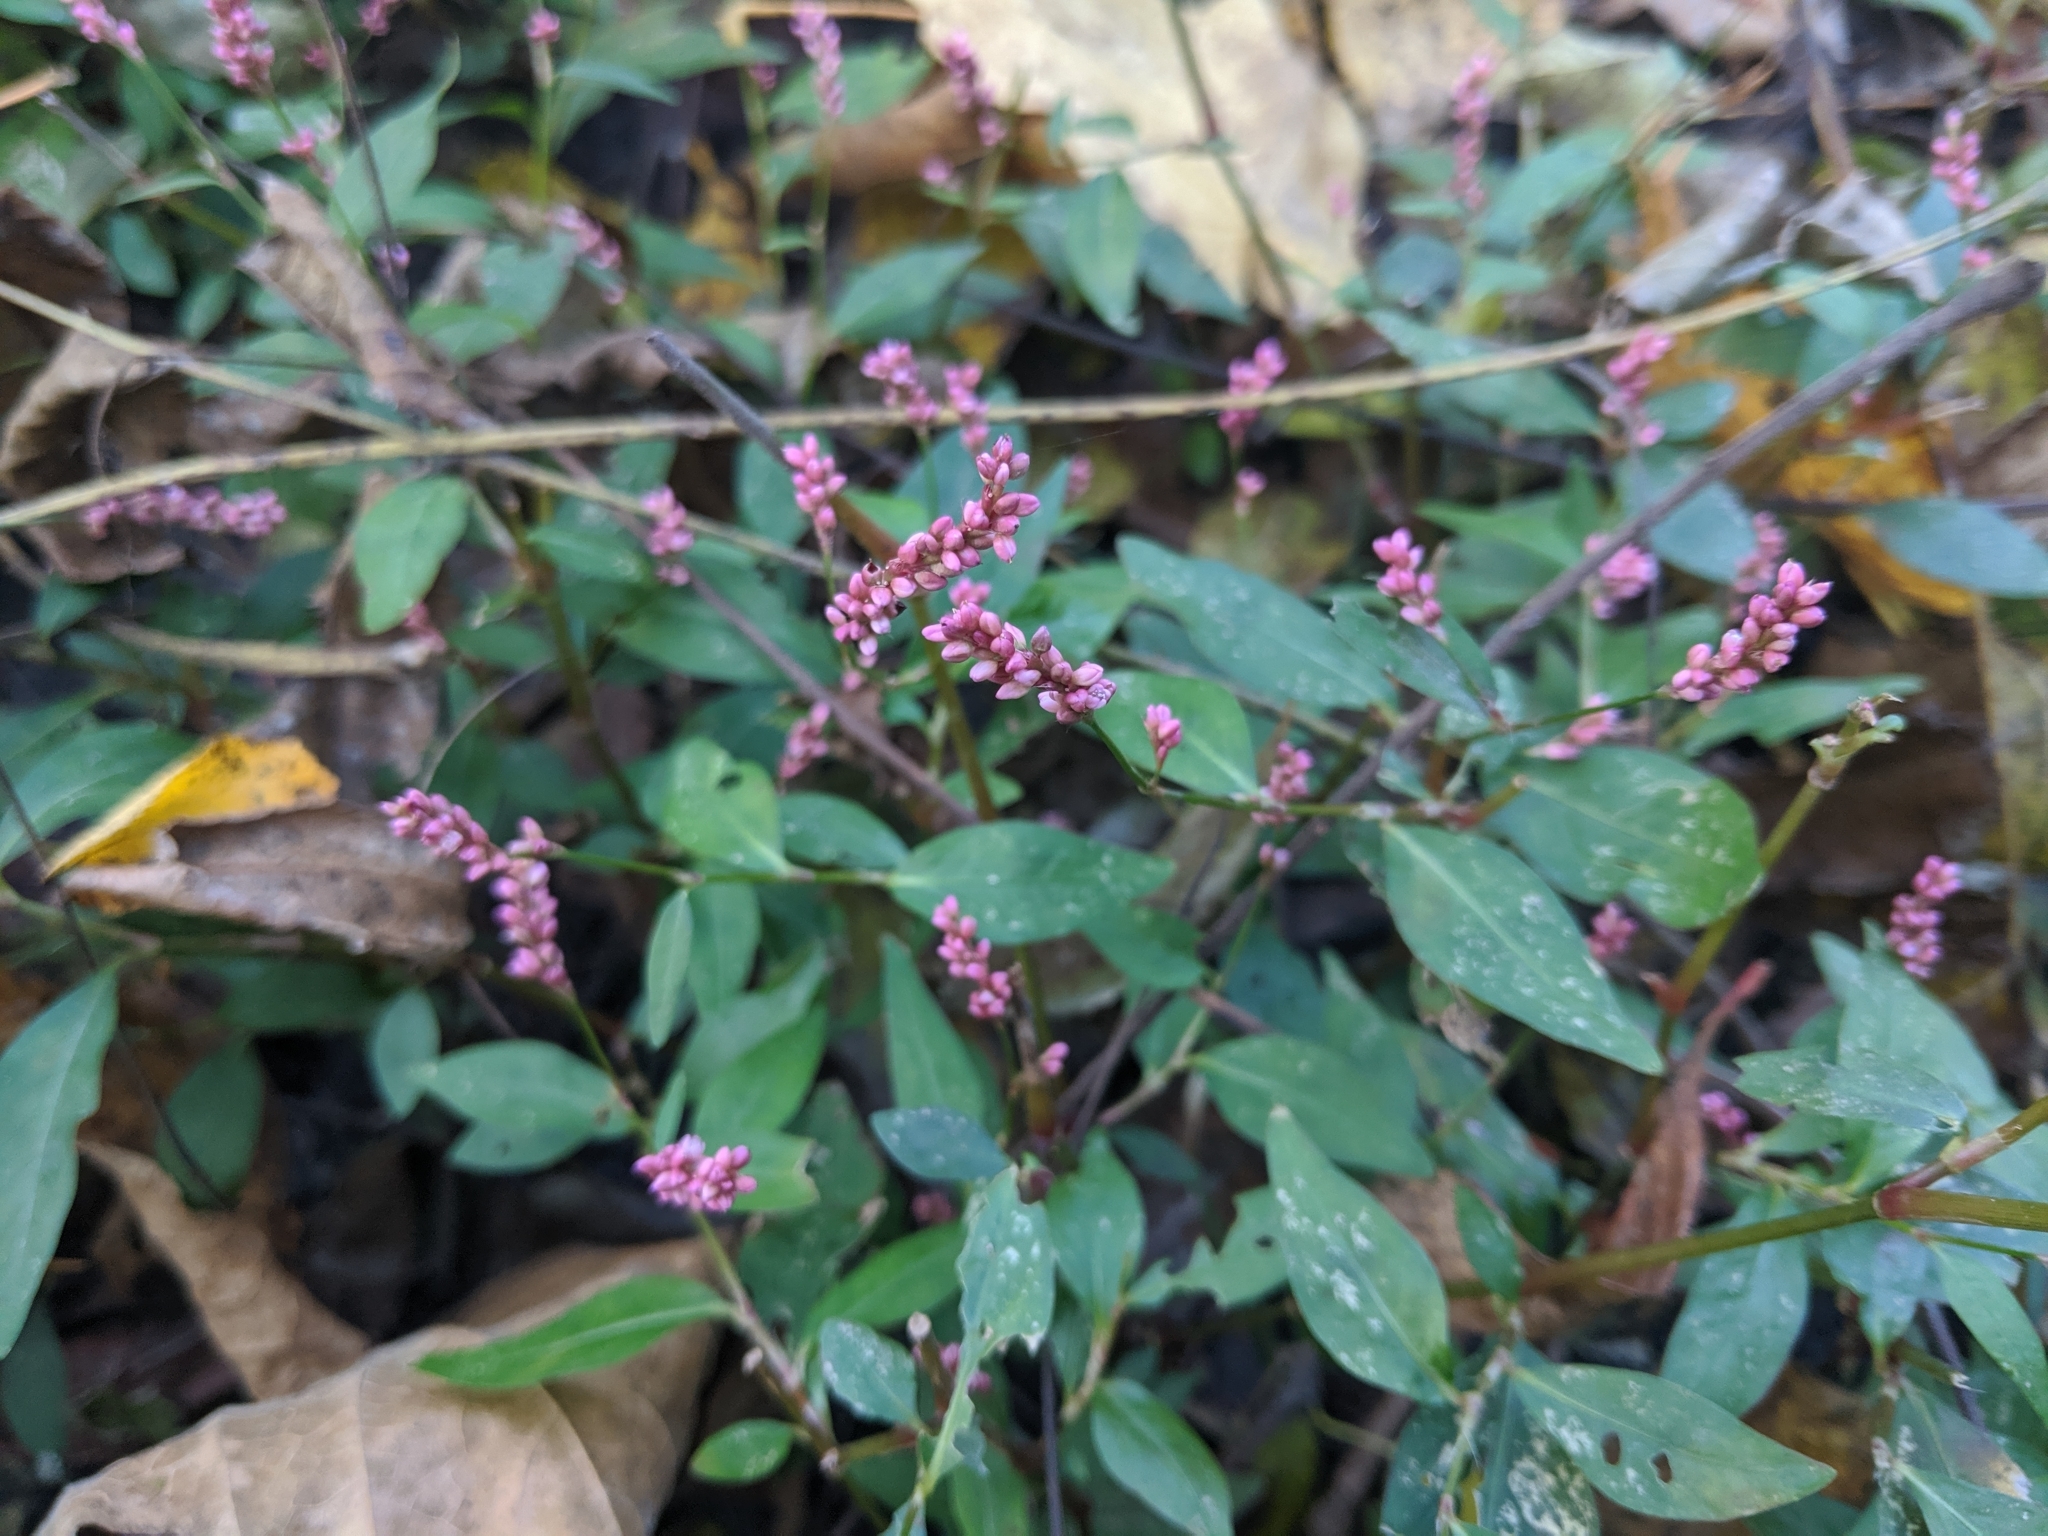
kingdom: Plantae
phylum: Tracheophyta
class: Magnoliopsida
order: Caryophyllales
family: Polygonaceae
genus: Persicaria
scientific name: Persicaria longiseta
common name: Bristly lady's-thumb
